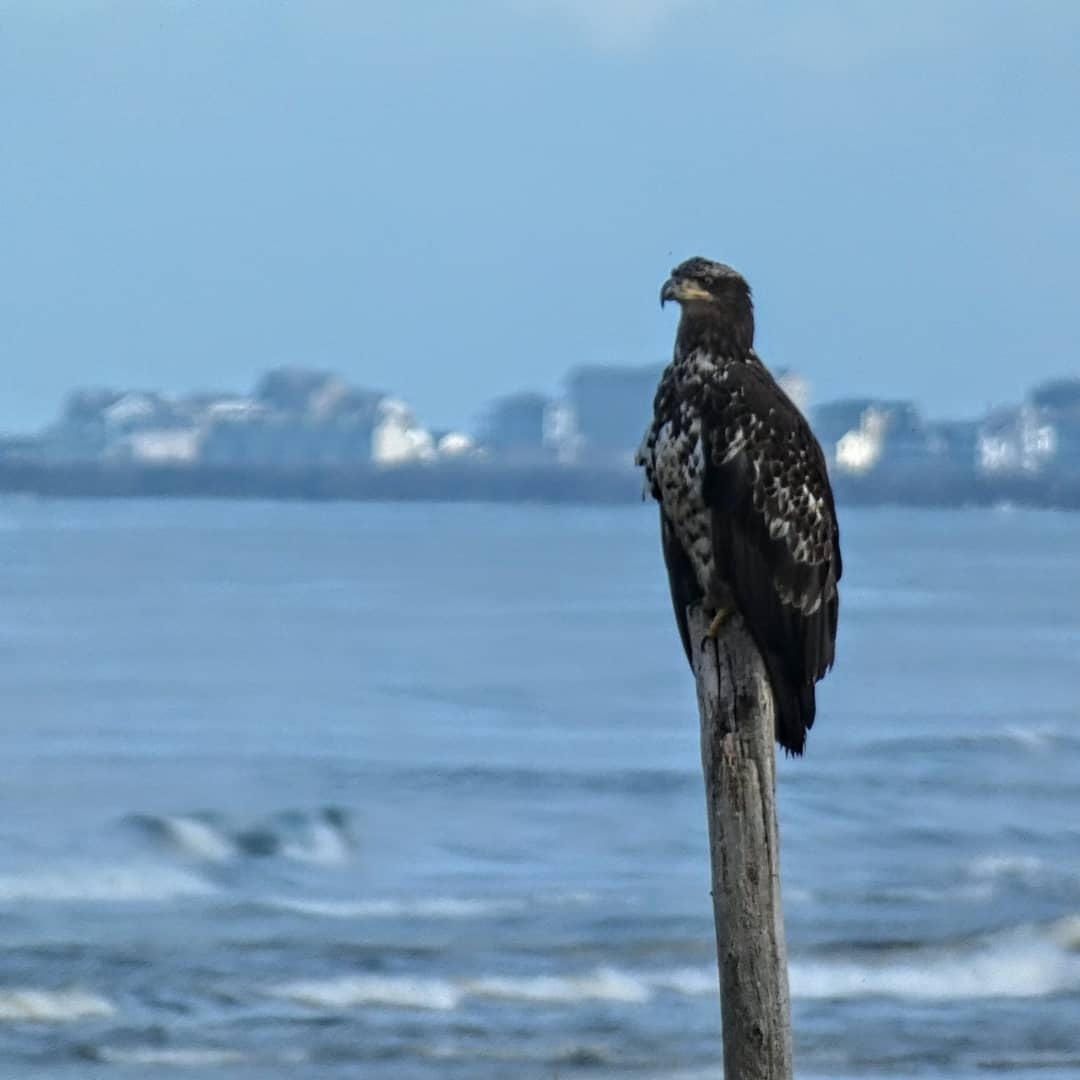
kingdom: Animalia
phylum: Chordata
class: Aves
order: Accipitriformes
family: Accipitridae
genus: Haliaeetus
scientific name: Haliaeetus leucocephalus
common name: Bald eagle
